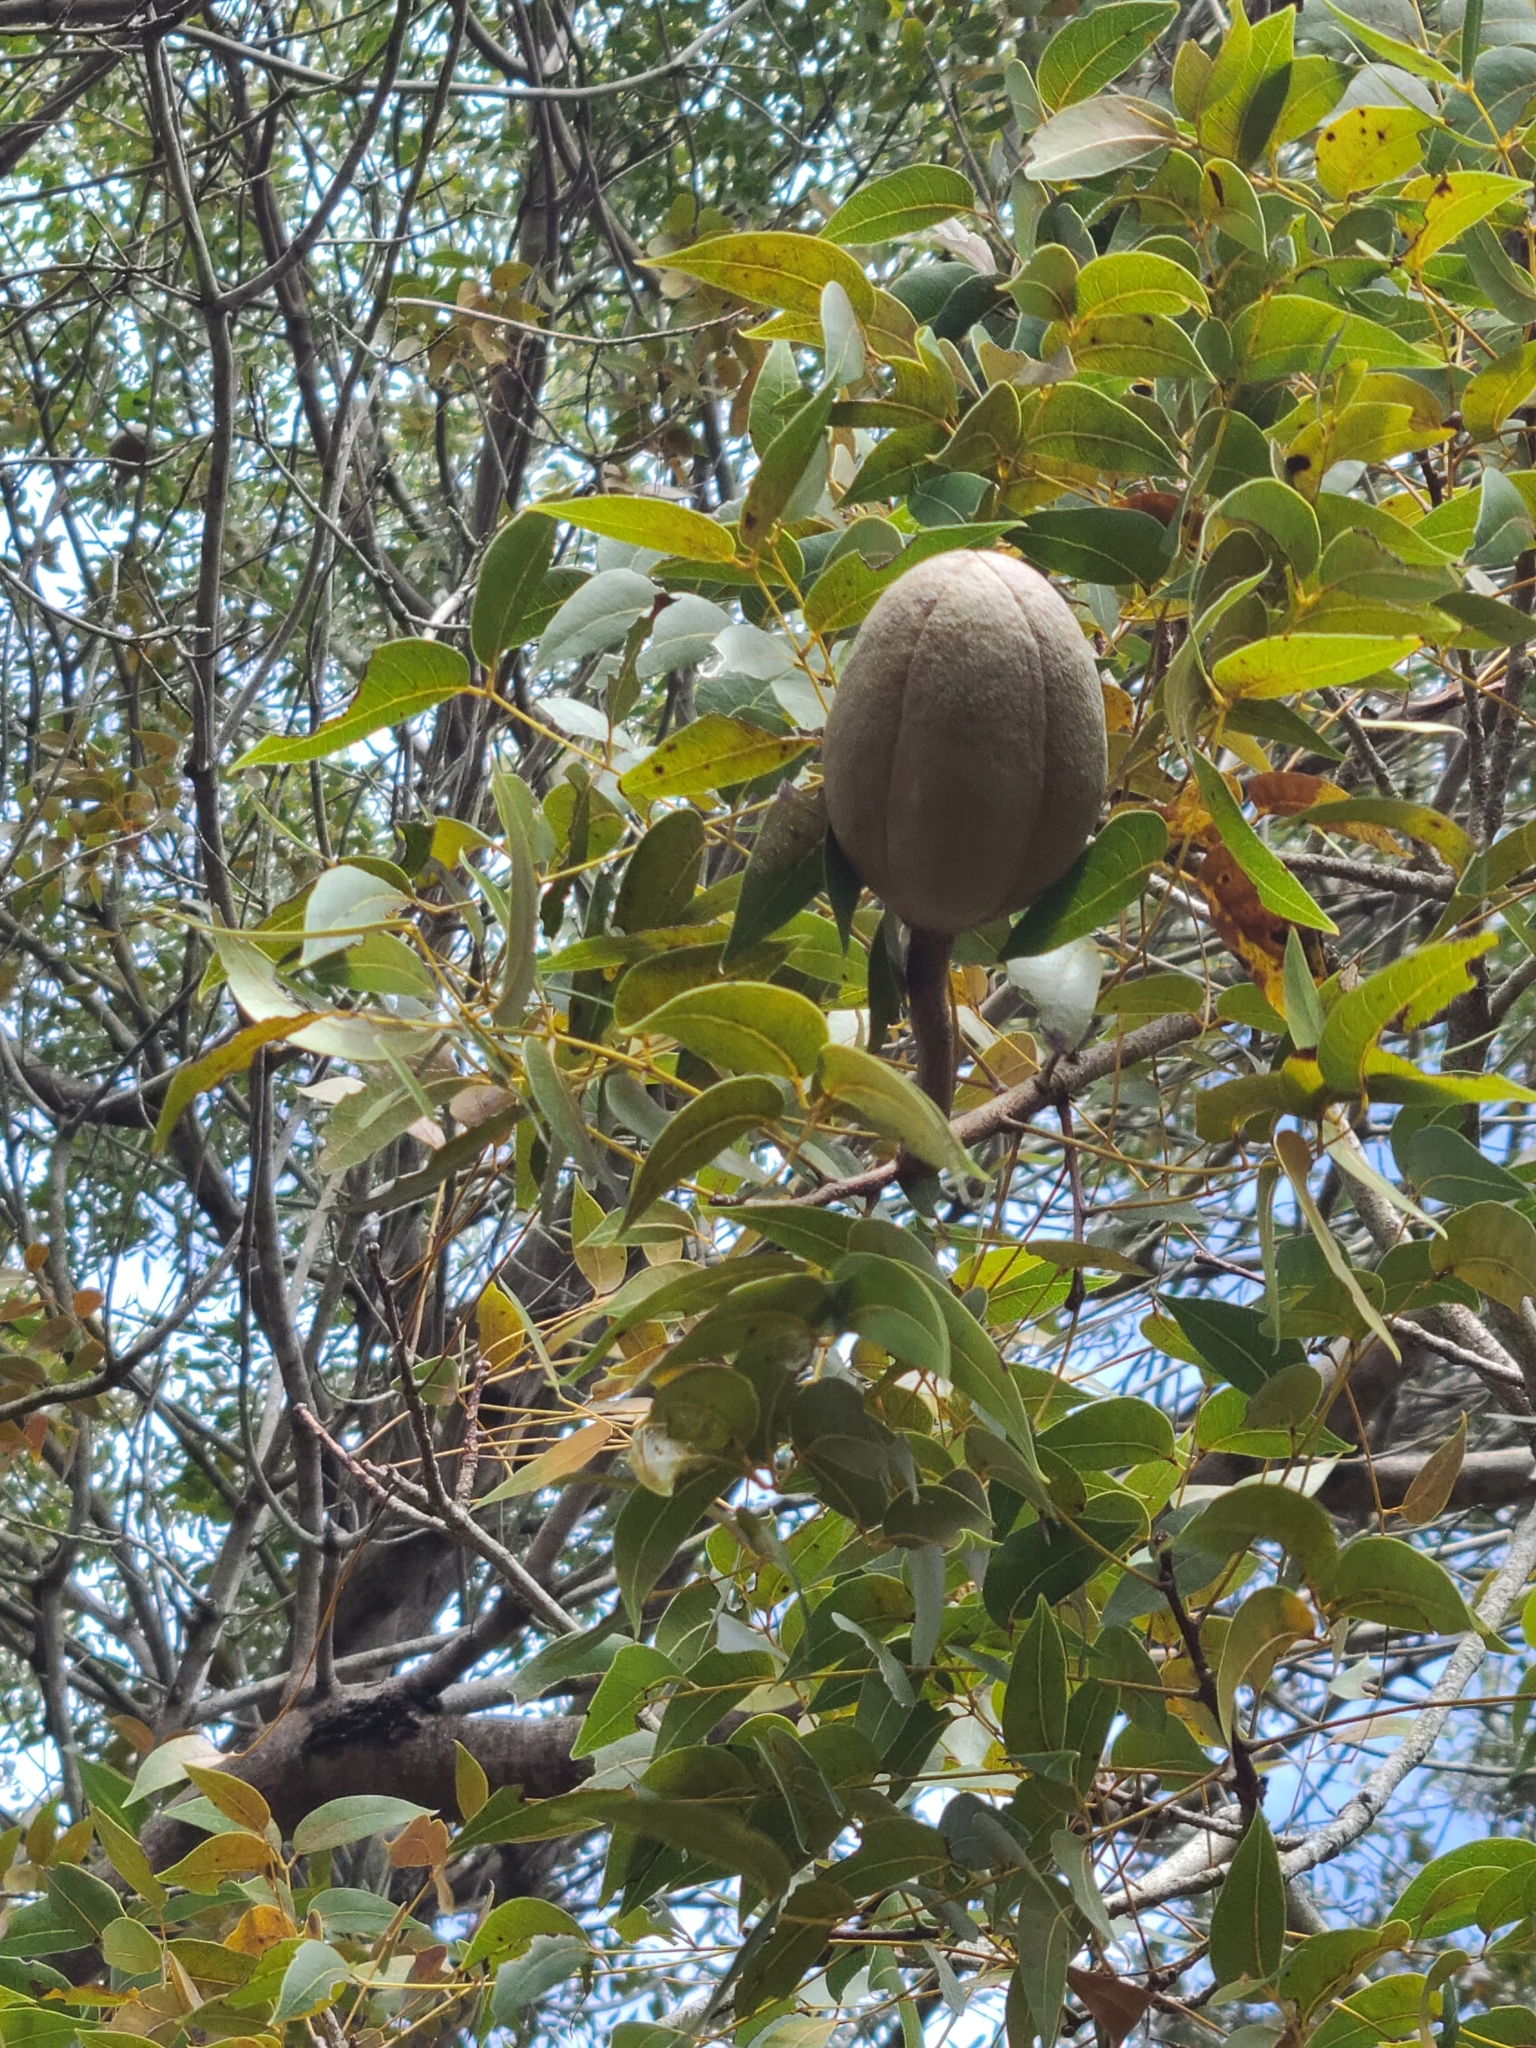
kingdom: Plantae
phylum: Tracheophyta
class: Magnoliopsida
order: Sapindales
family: Meliaceae
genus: Swietenia
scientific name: Swietenia mahagoni
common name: West indian mahogany
